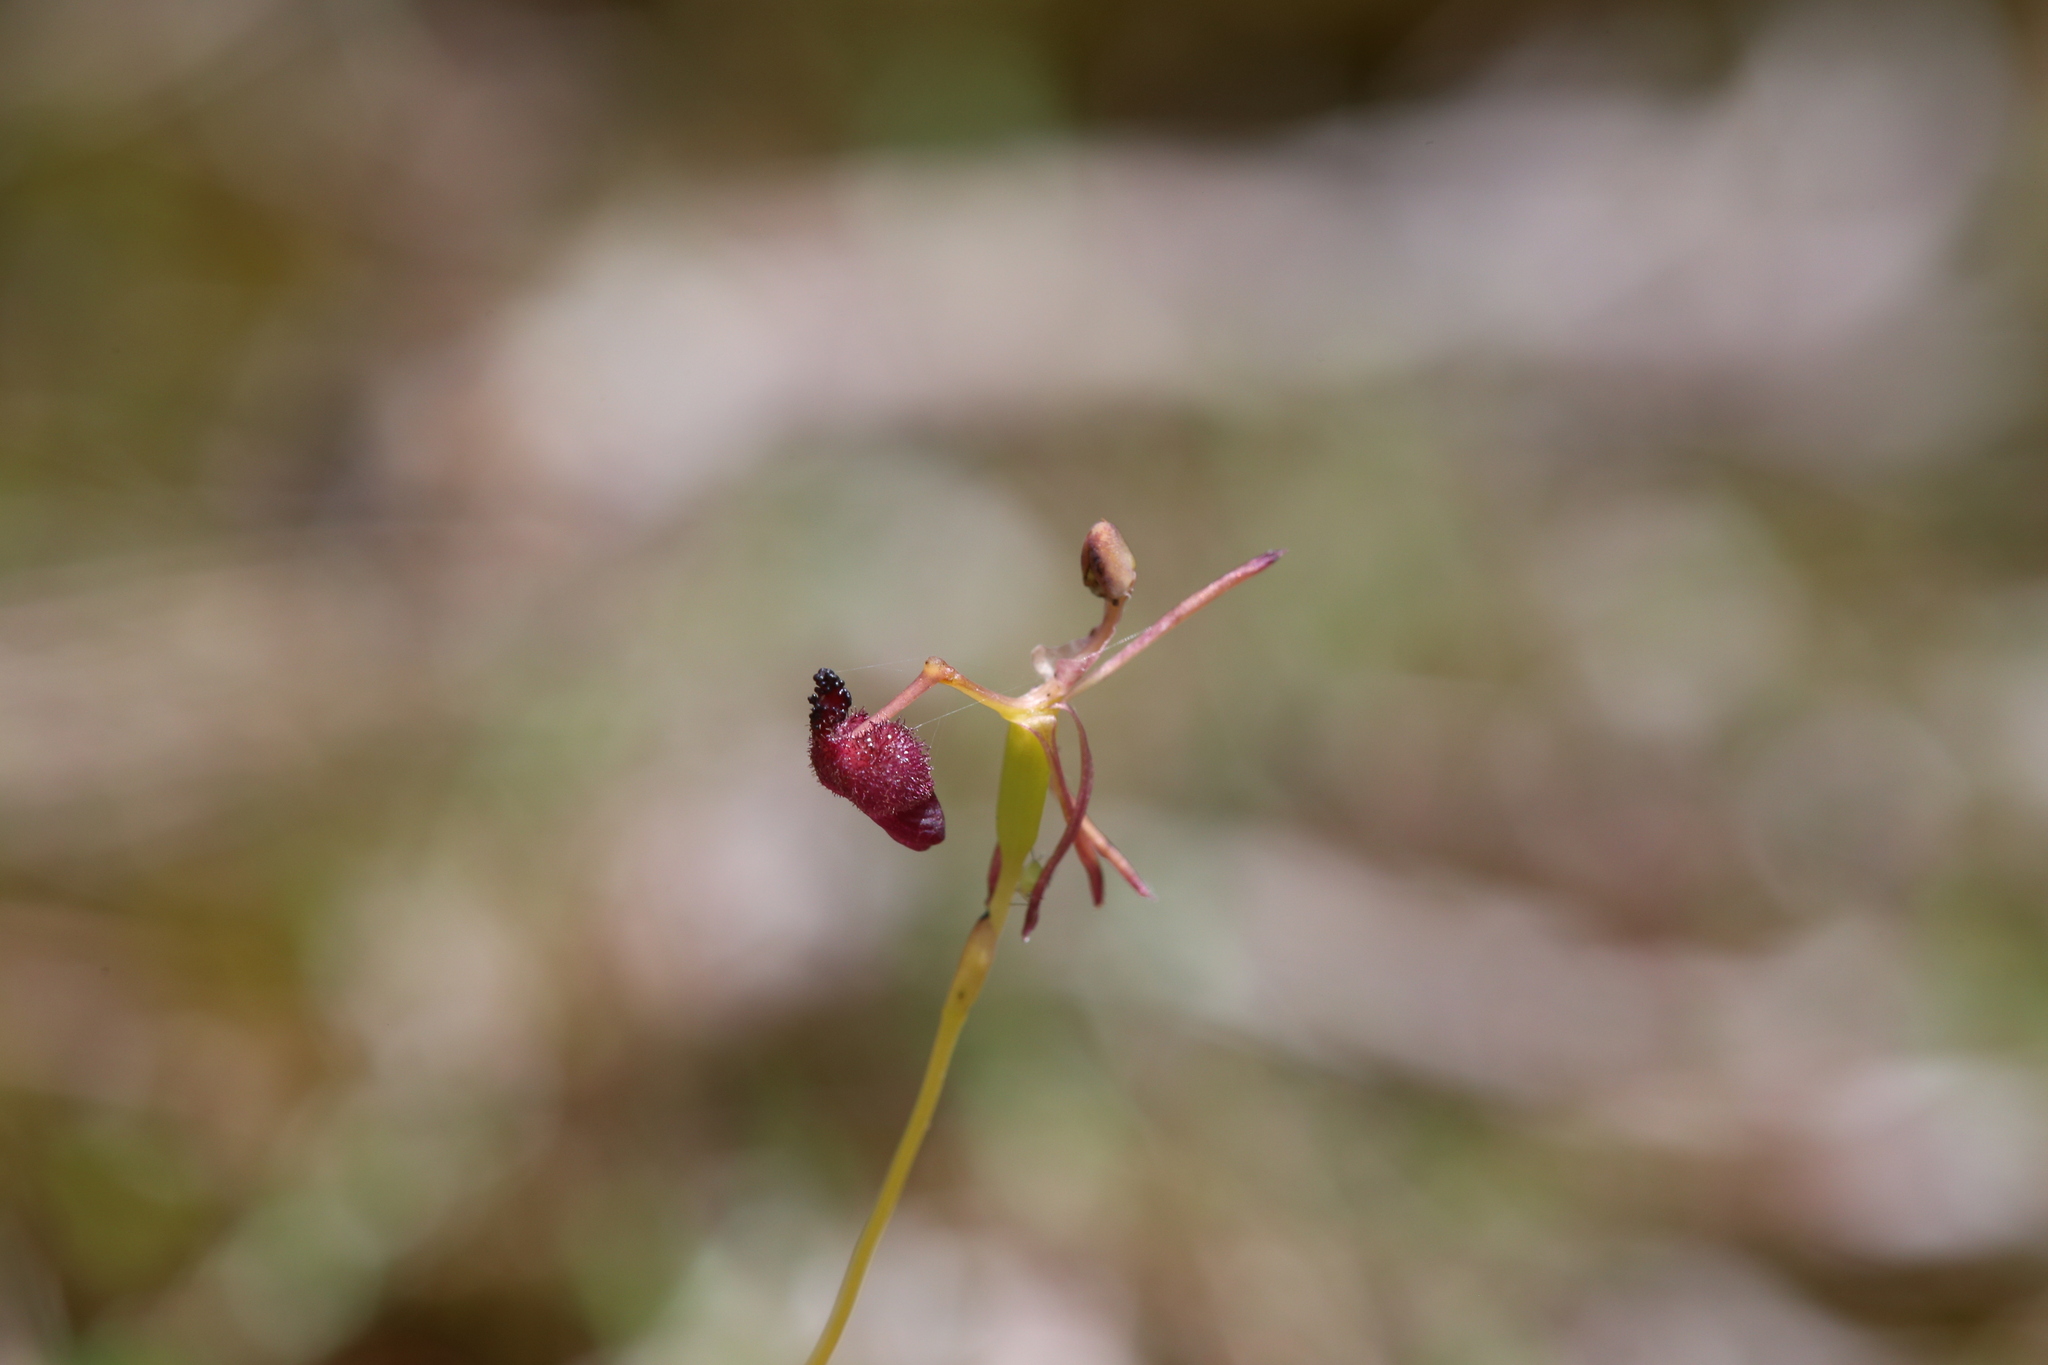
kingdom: Plantae
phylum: Tracheophyta
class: Liliopsida
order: Asparagales
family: Orchidaceae
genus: Drakaea
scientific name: Drakaea glyptodon
